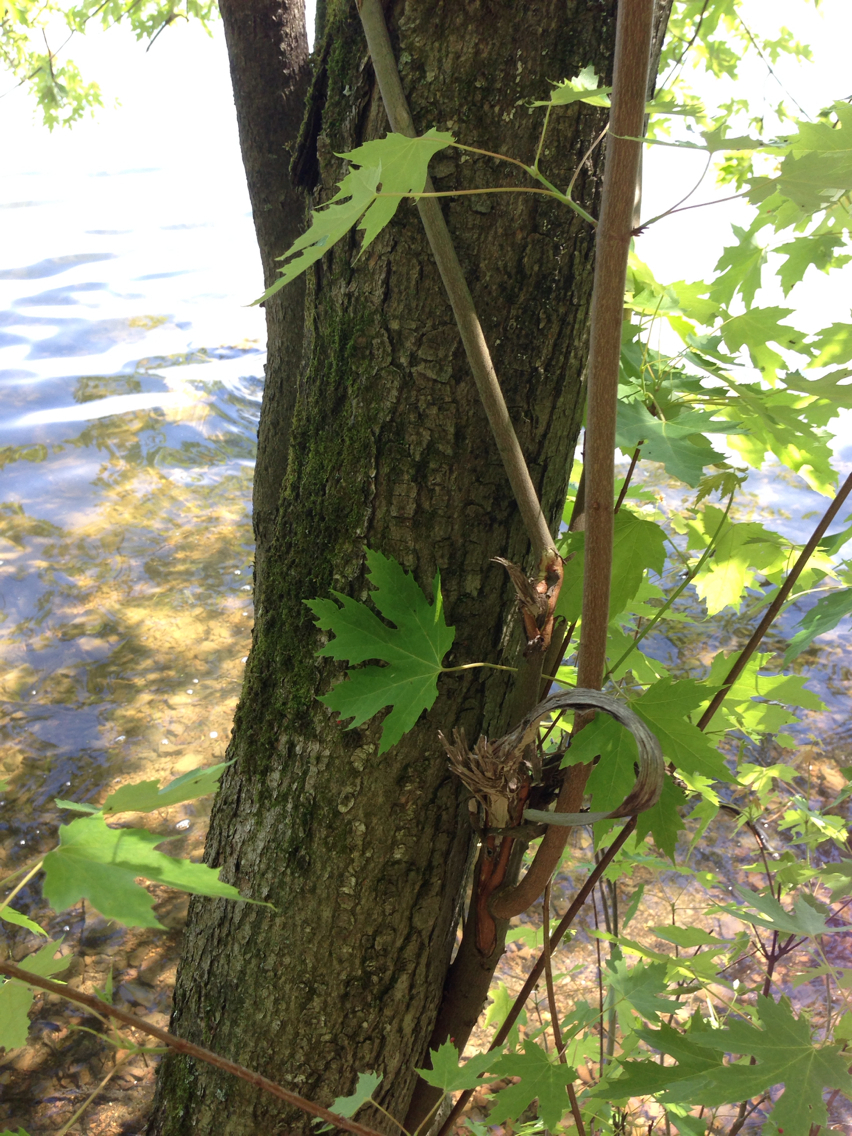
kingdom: Plantae
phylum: Tracheophyta
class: Magnoliopsida
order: Sapindales
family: Sapindaceae
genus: Acer
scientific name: Acer saccharinum
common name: Silver maple
